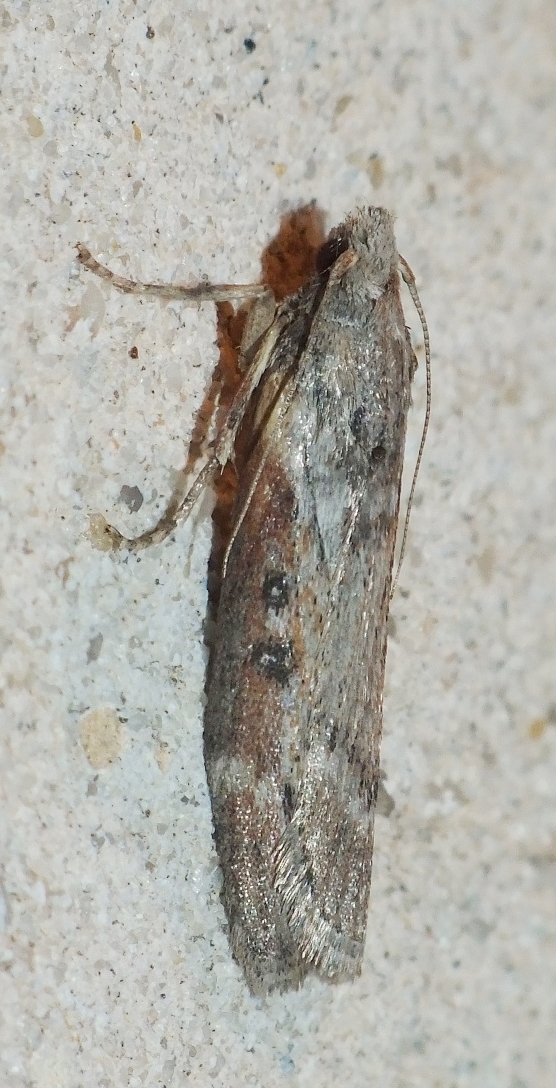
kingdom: Animalia
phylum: Arthropoda
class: Insecta
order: Lepidoptera
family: Pyralidae
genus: Lamoria
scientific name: Lamoria anella
